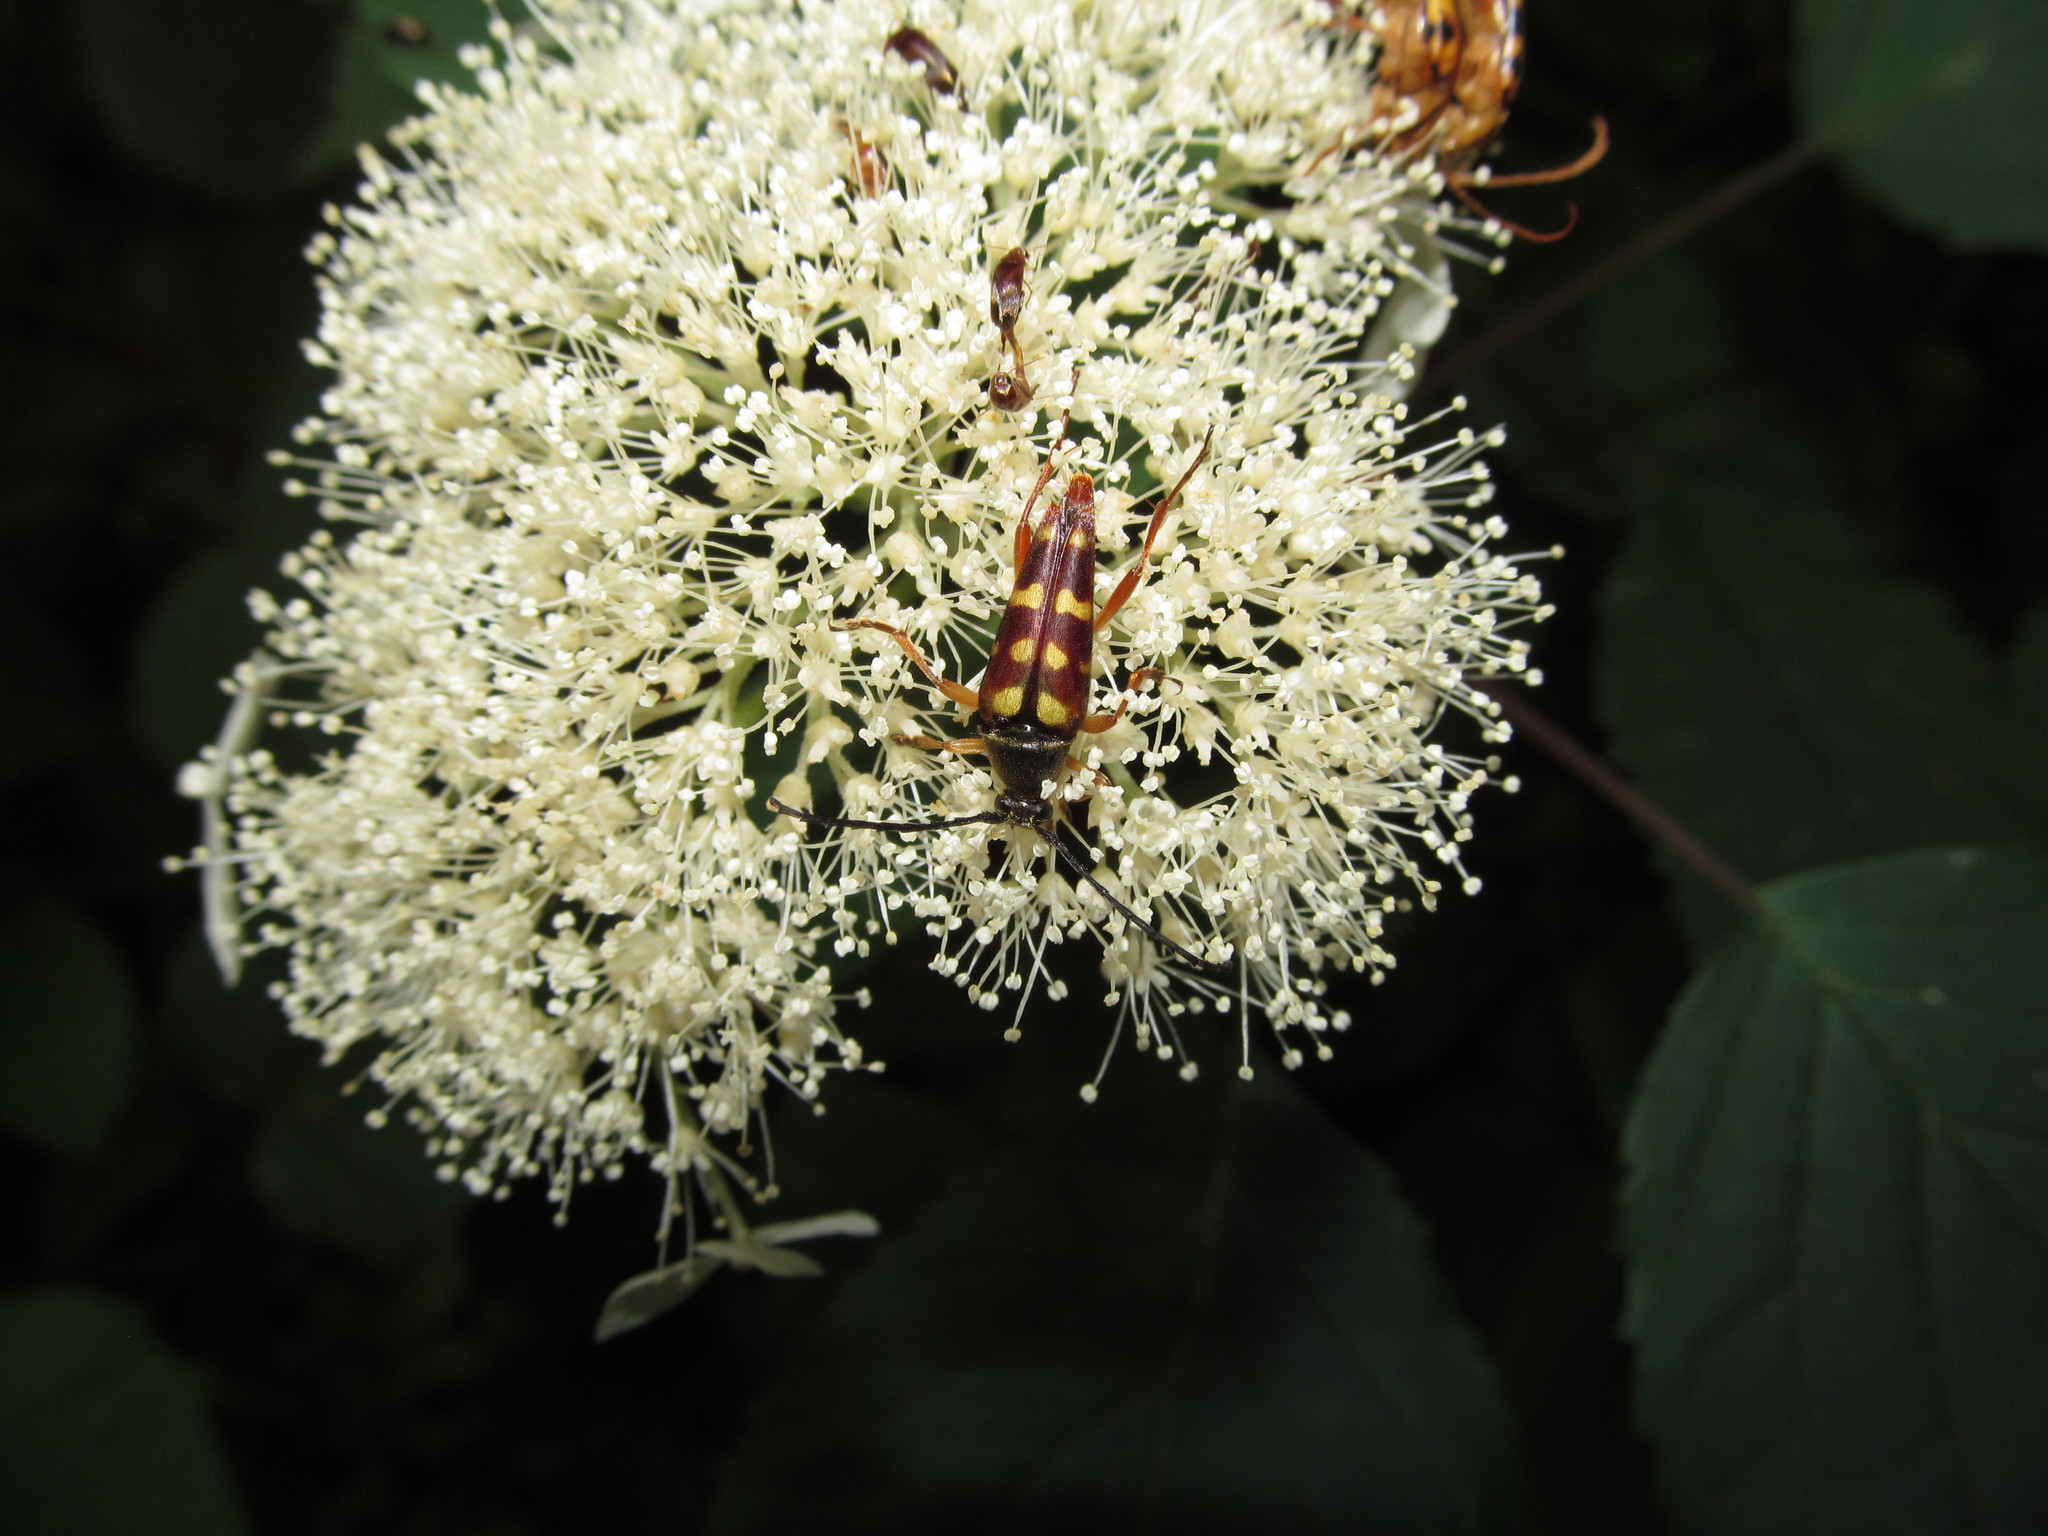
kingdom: Animalia
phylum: Arthropoda
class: Insecta
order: Coleoptera
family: Cerambycidae
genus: Typocerus
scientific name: Typocerus velutinus
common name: Banded longhorn beetle
